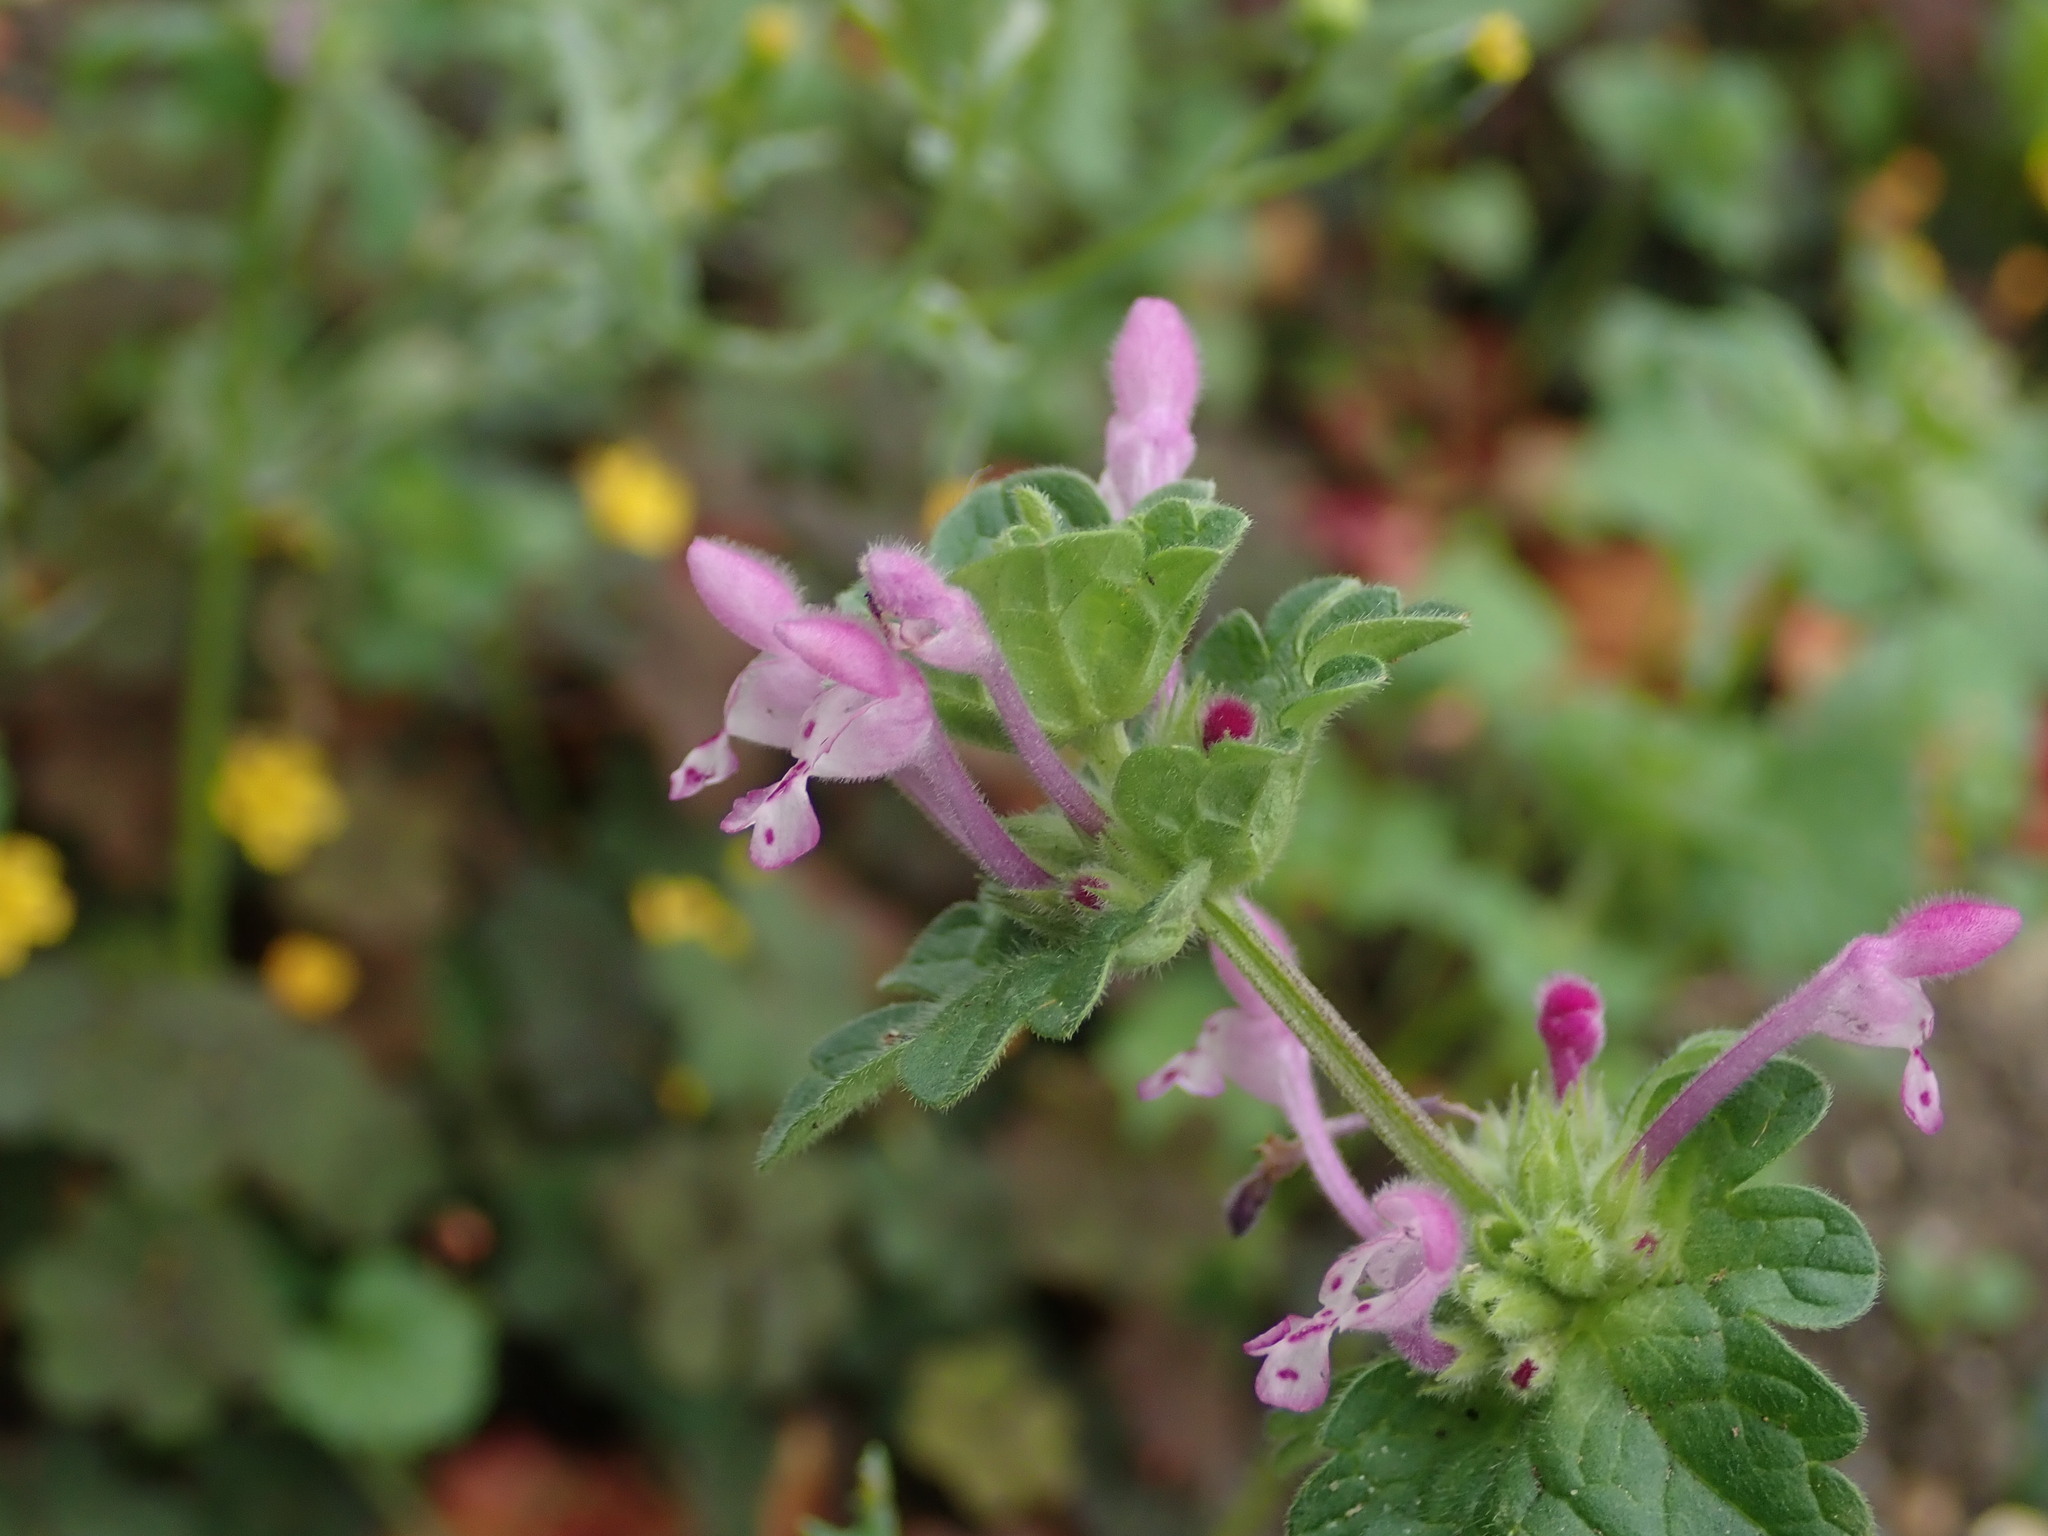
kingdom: Plantae
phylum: Tracheophyta
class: Magnoliopsida
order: Lamiales
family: Lamiaceae
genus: Lamium
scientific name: Lamium amplexicaule
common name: Henbit dead-nettle
